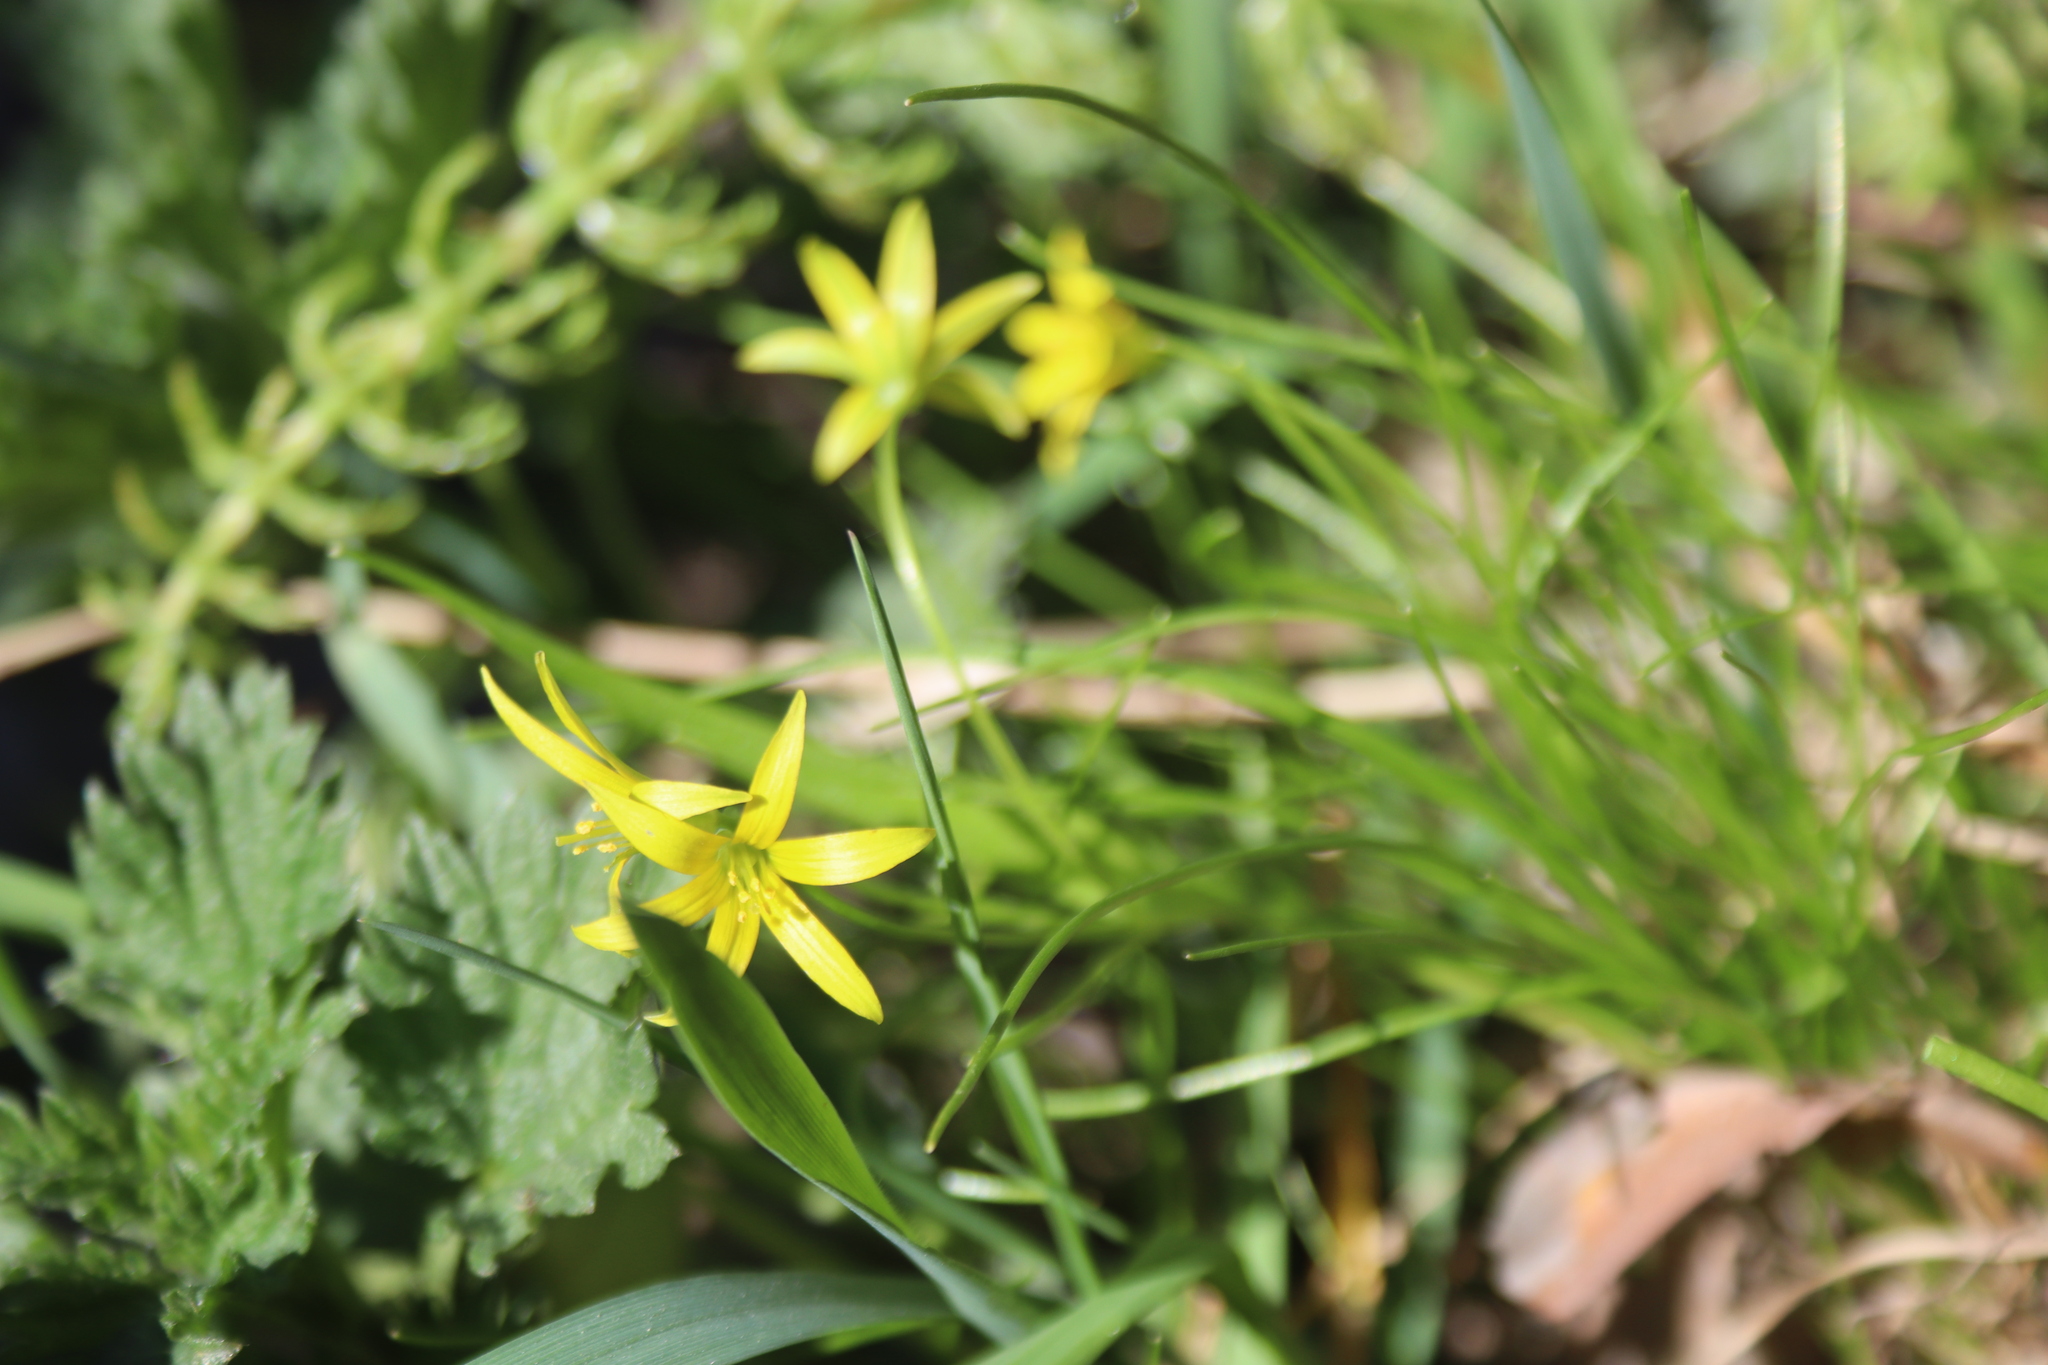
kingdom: Plantae
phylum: Tracheophyta
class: Liliopsida
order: Liliales
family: Liliaceae
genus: Gagea
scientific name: Gagea minima
